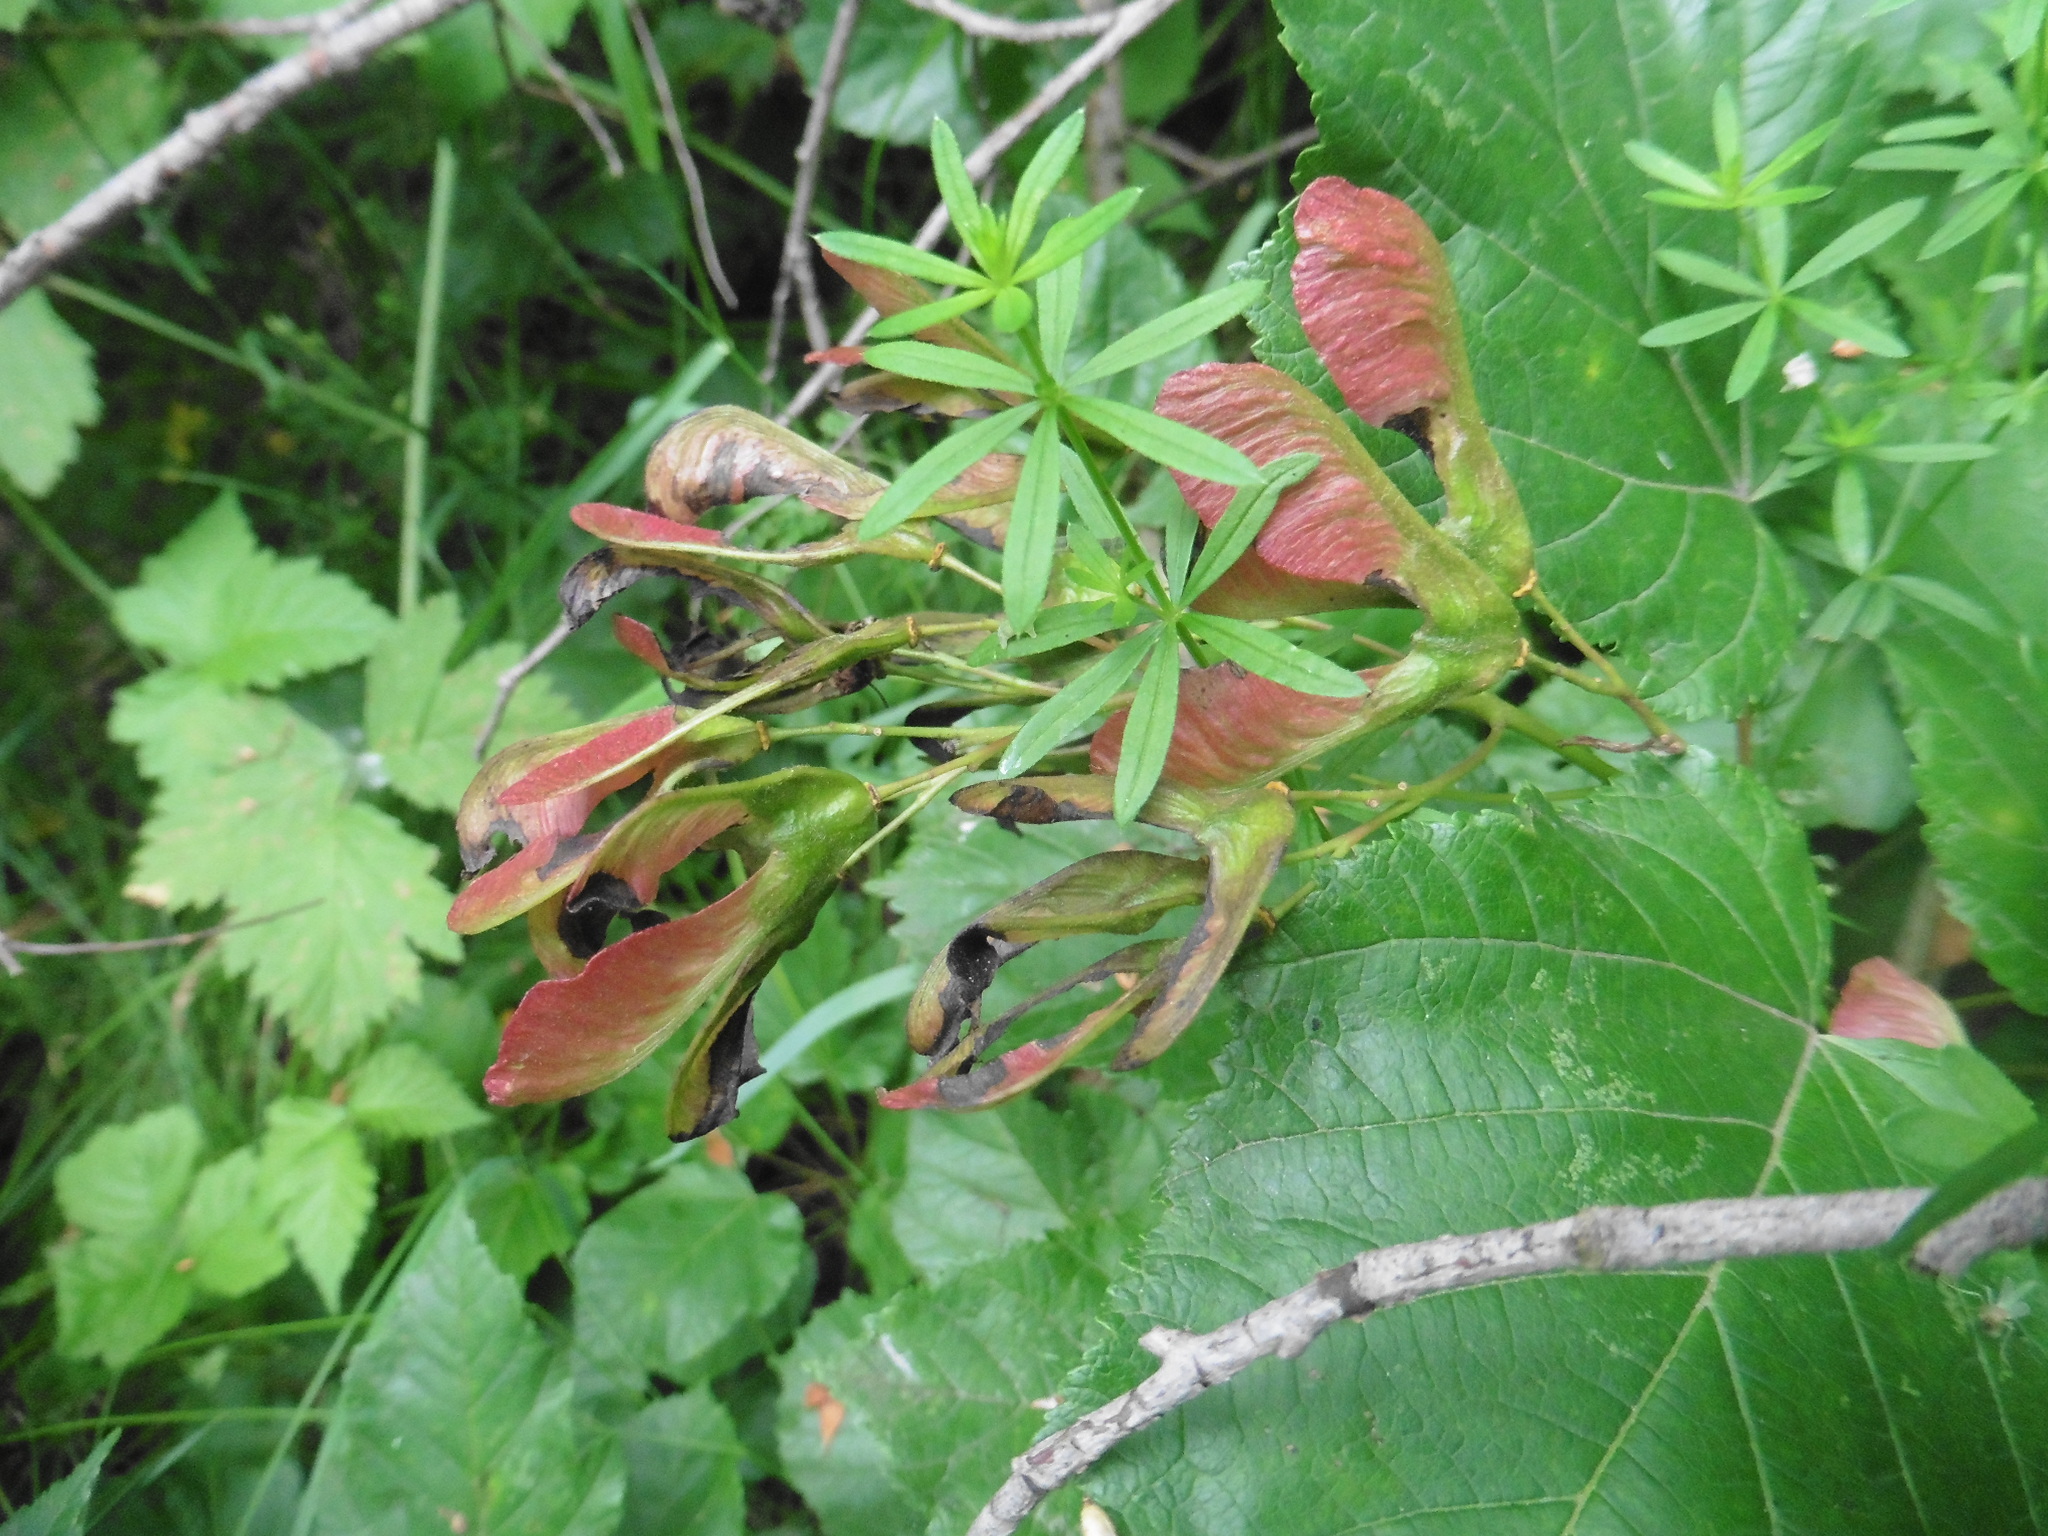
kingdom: Plantae
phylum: Tracheophyta
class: Magnoliopsida
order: Sapindales
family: Sapindaceae
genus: Acer
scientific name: Acer tataricum
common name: Tartar maple
